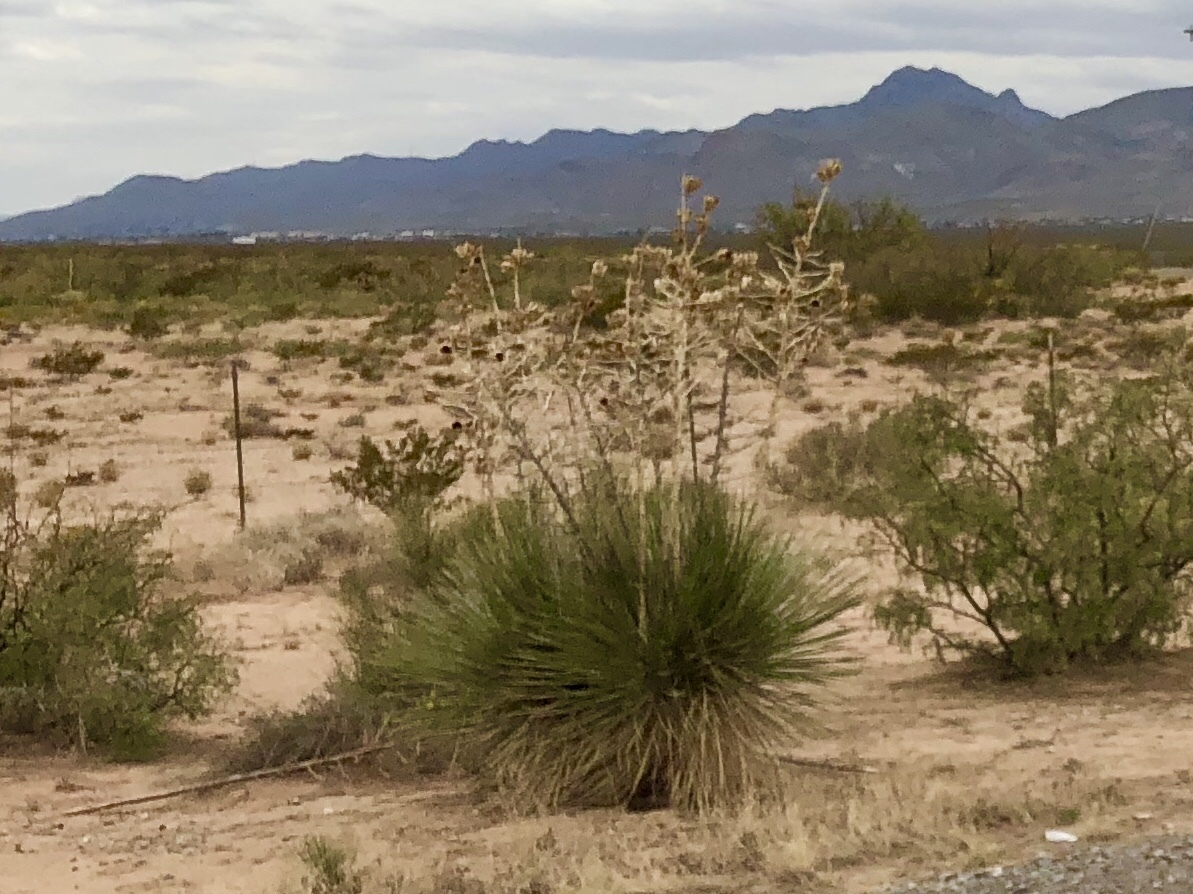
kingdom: Plantae
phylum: Tracheophyta
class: Liliopsida
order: Asparagales
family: Asparagaceae
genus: Yucca
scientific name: Yucca elata
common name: Palmella
